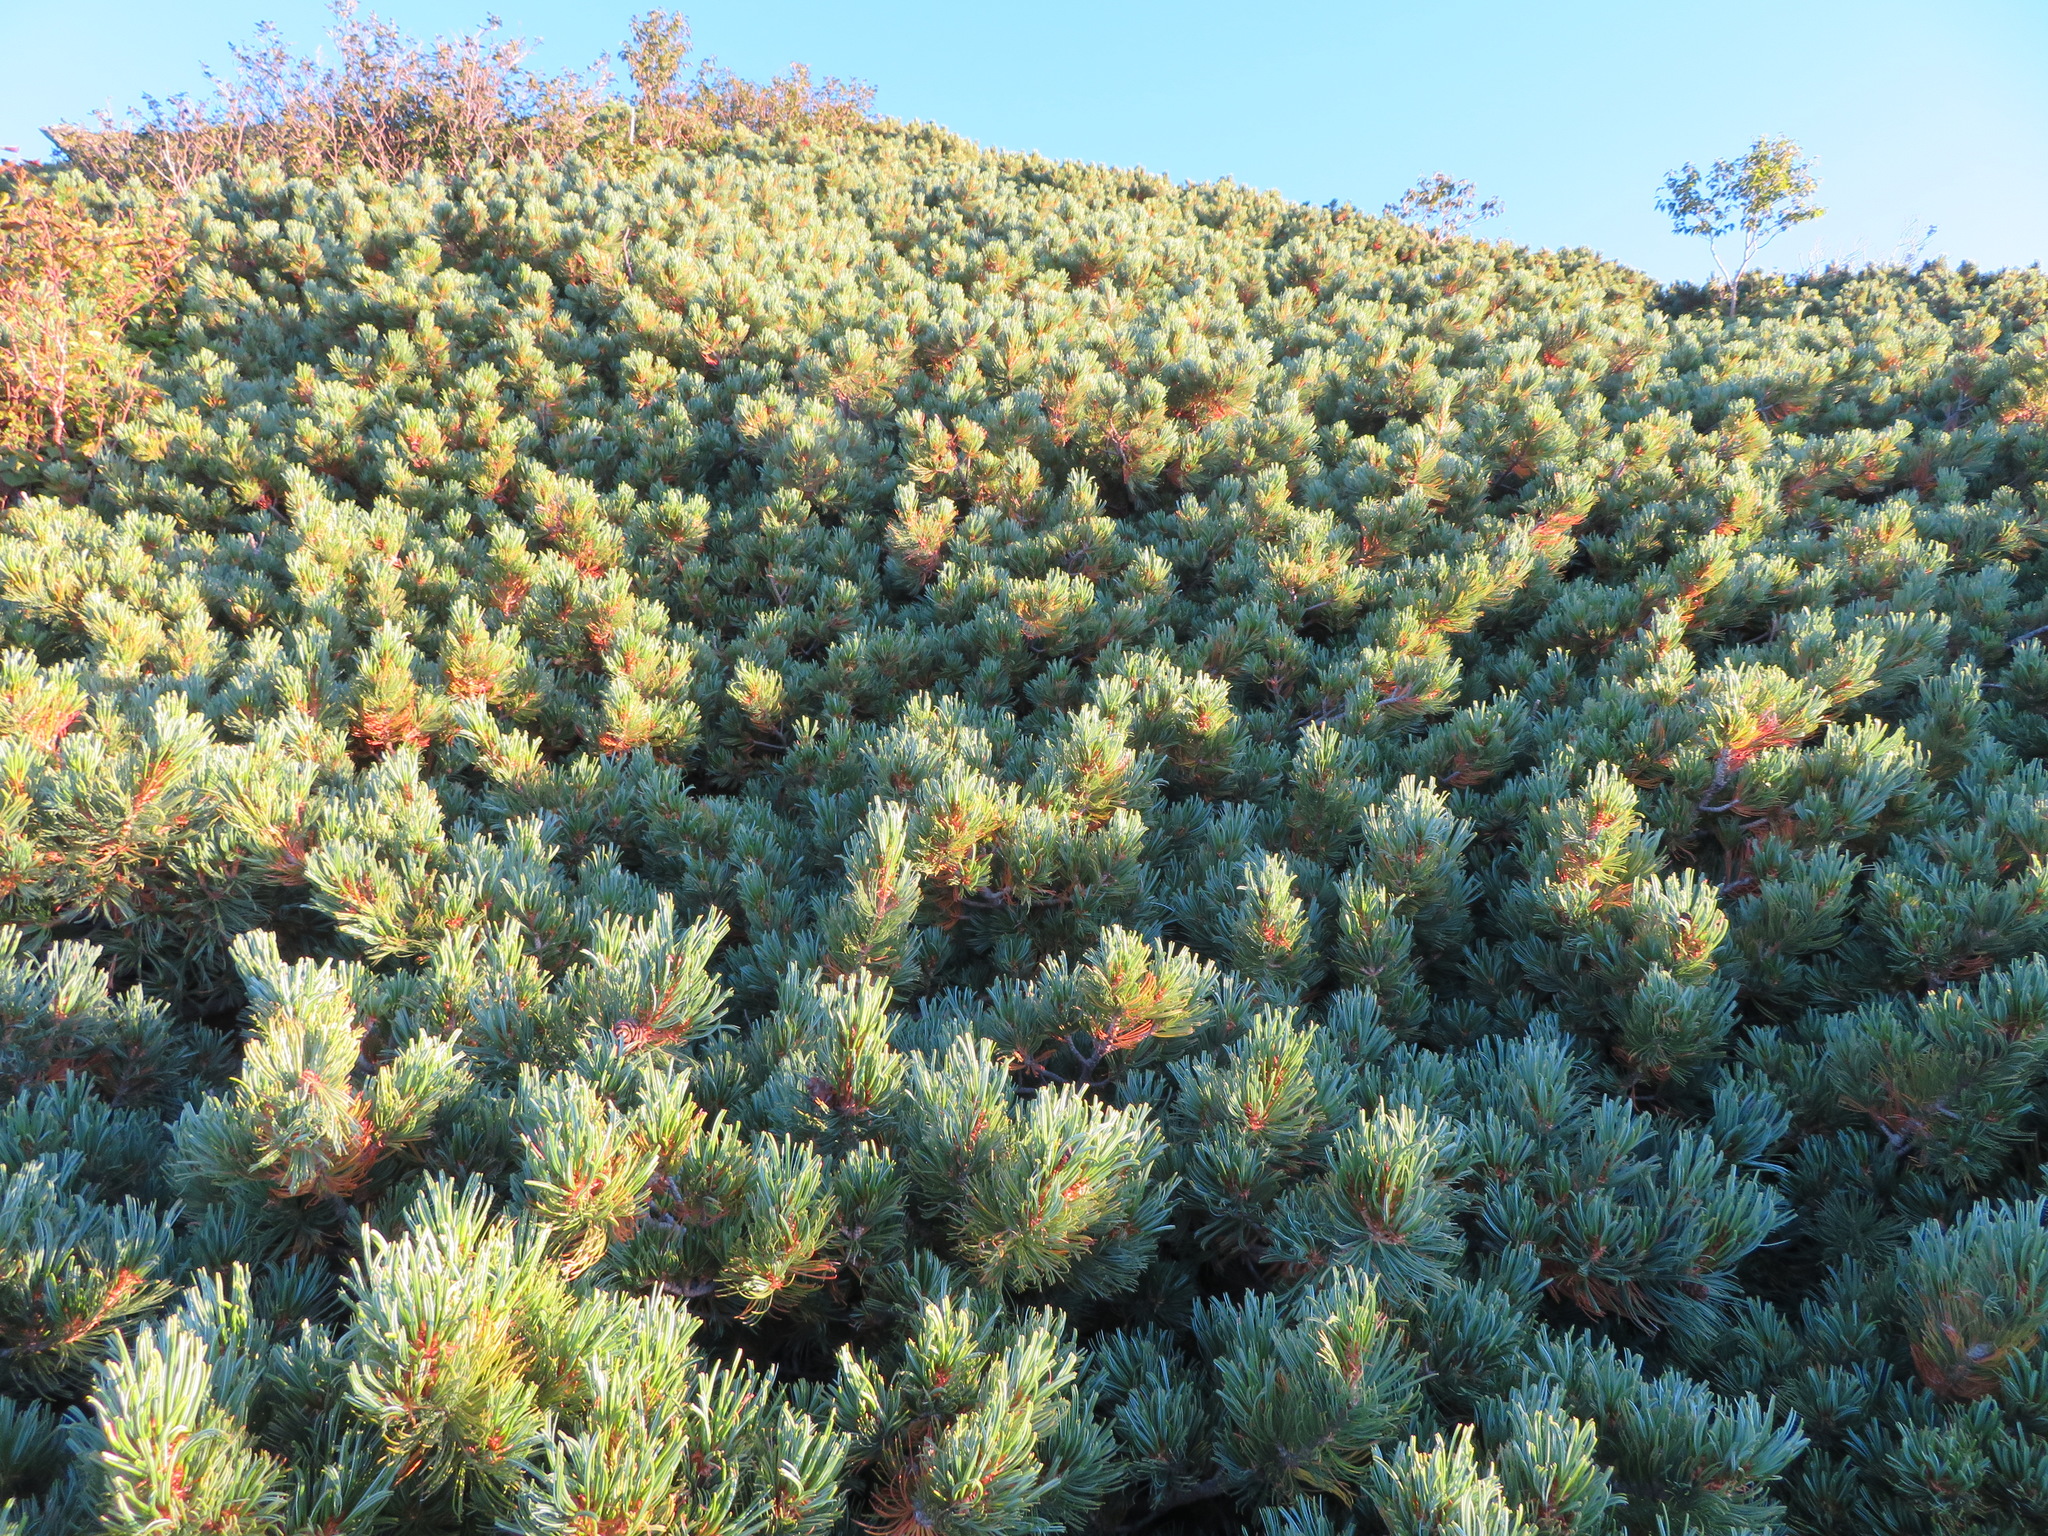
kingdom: Plantae
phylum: Tracheophyta
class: Pinopsida
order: Pinales
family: Pinaceae
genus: Pinus
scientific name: Pinus pumila
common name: Dwarf siberian pine
